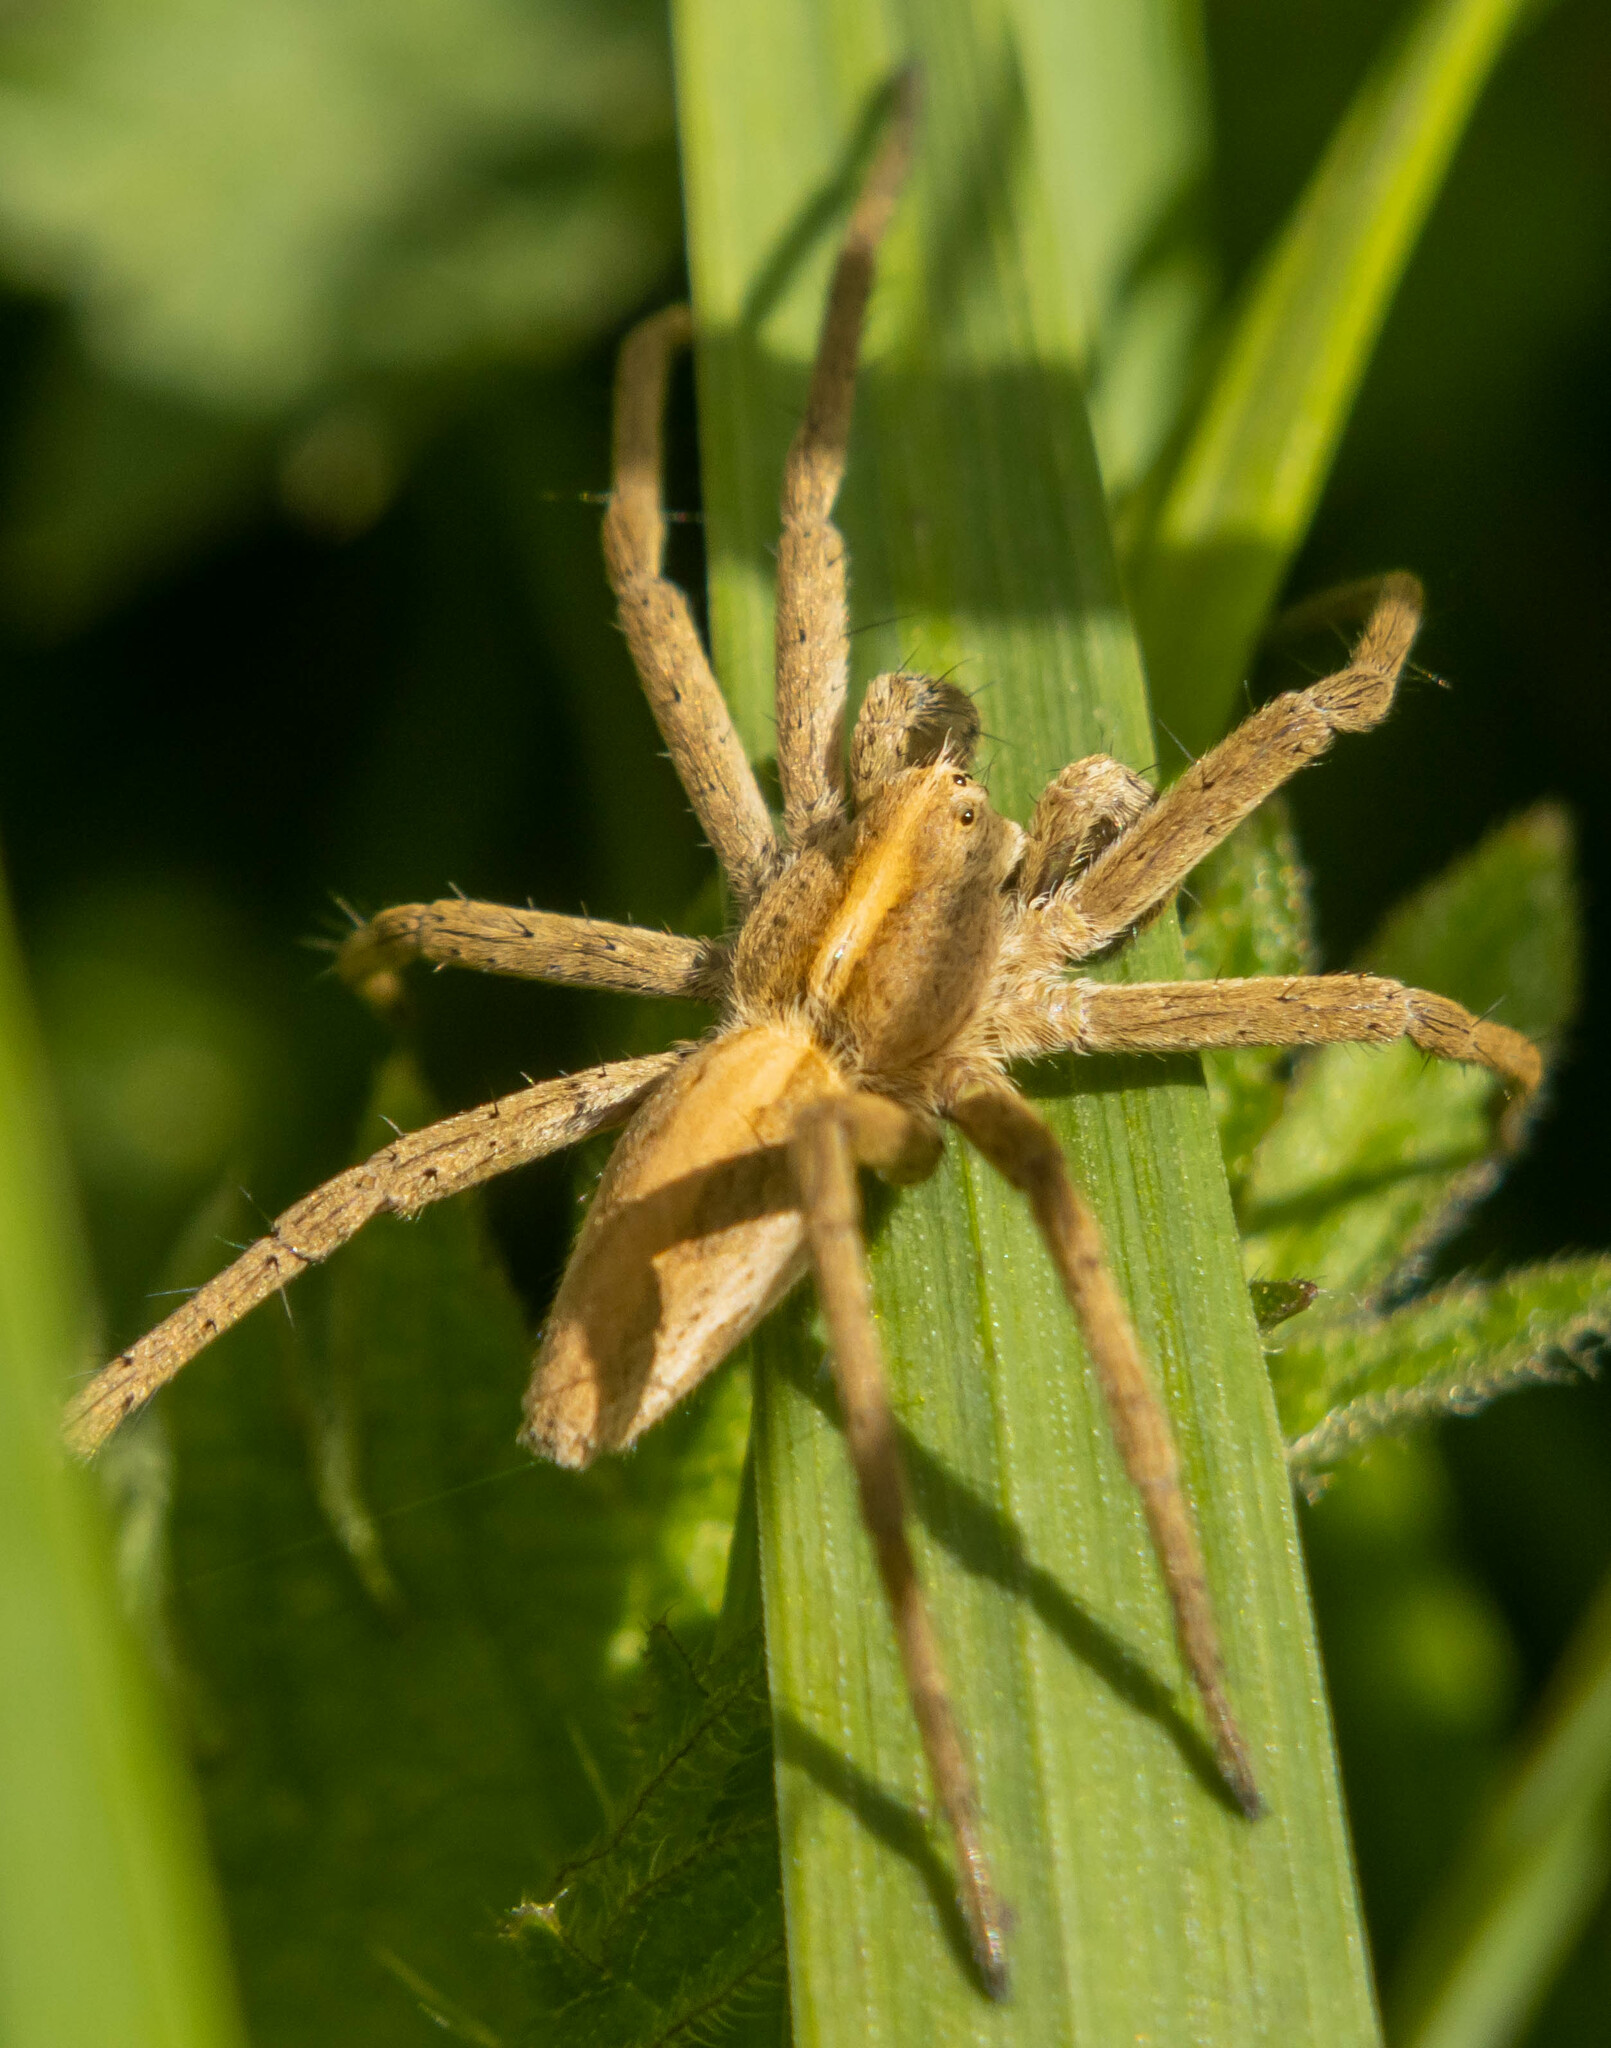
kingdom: Animalia
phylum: Arthropoda
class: Arachnida
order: Araneae
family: Pisauridae
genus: Pisaura
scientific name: Pisaura mirabilis
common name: Tent spider
